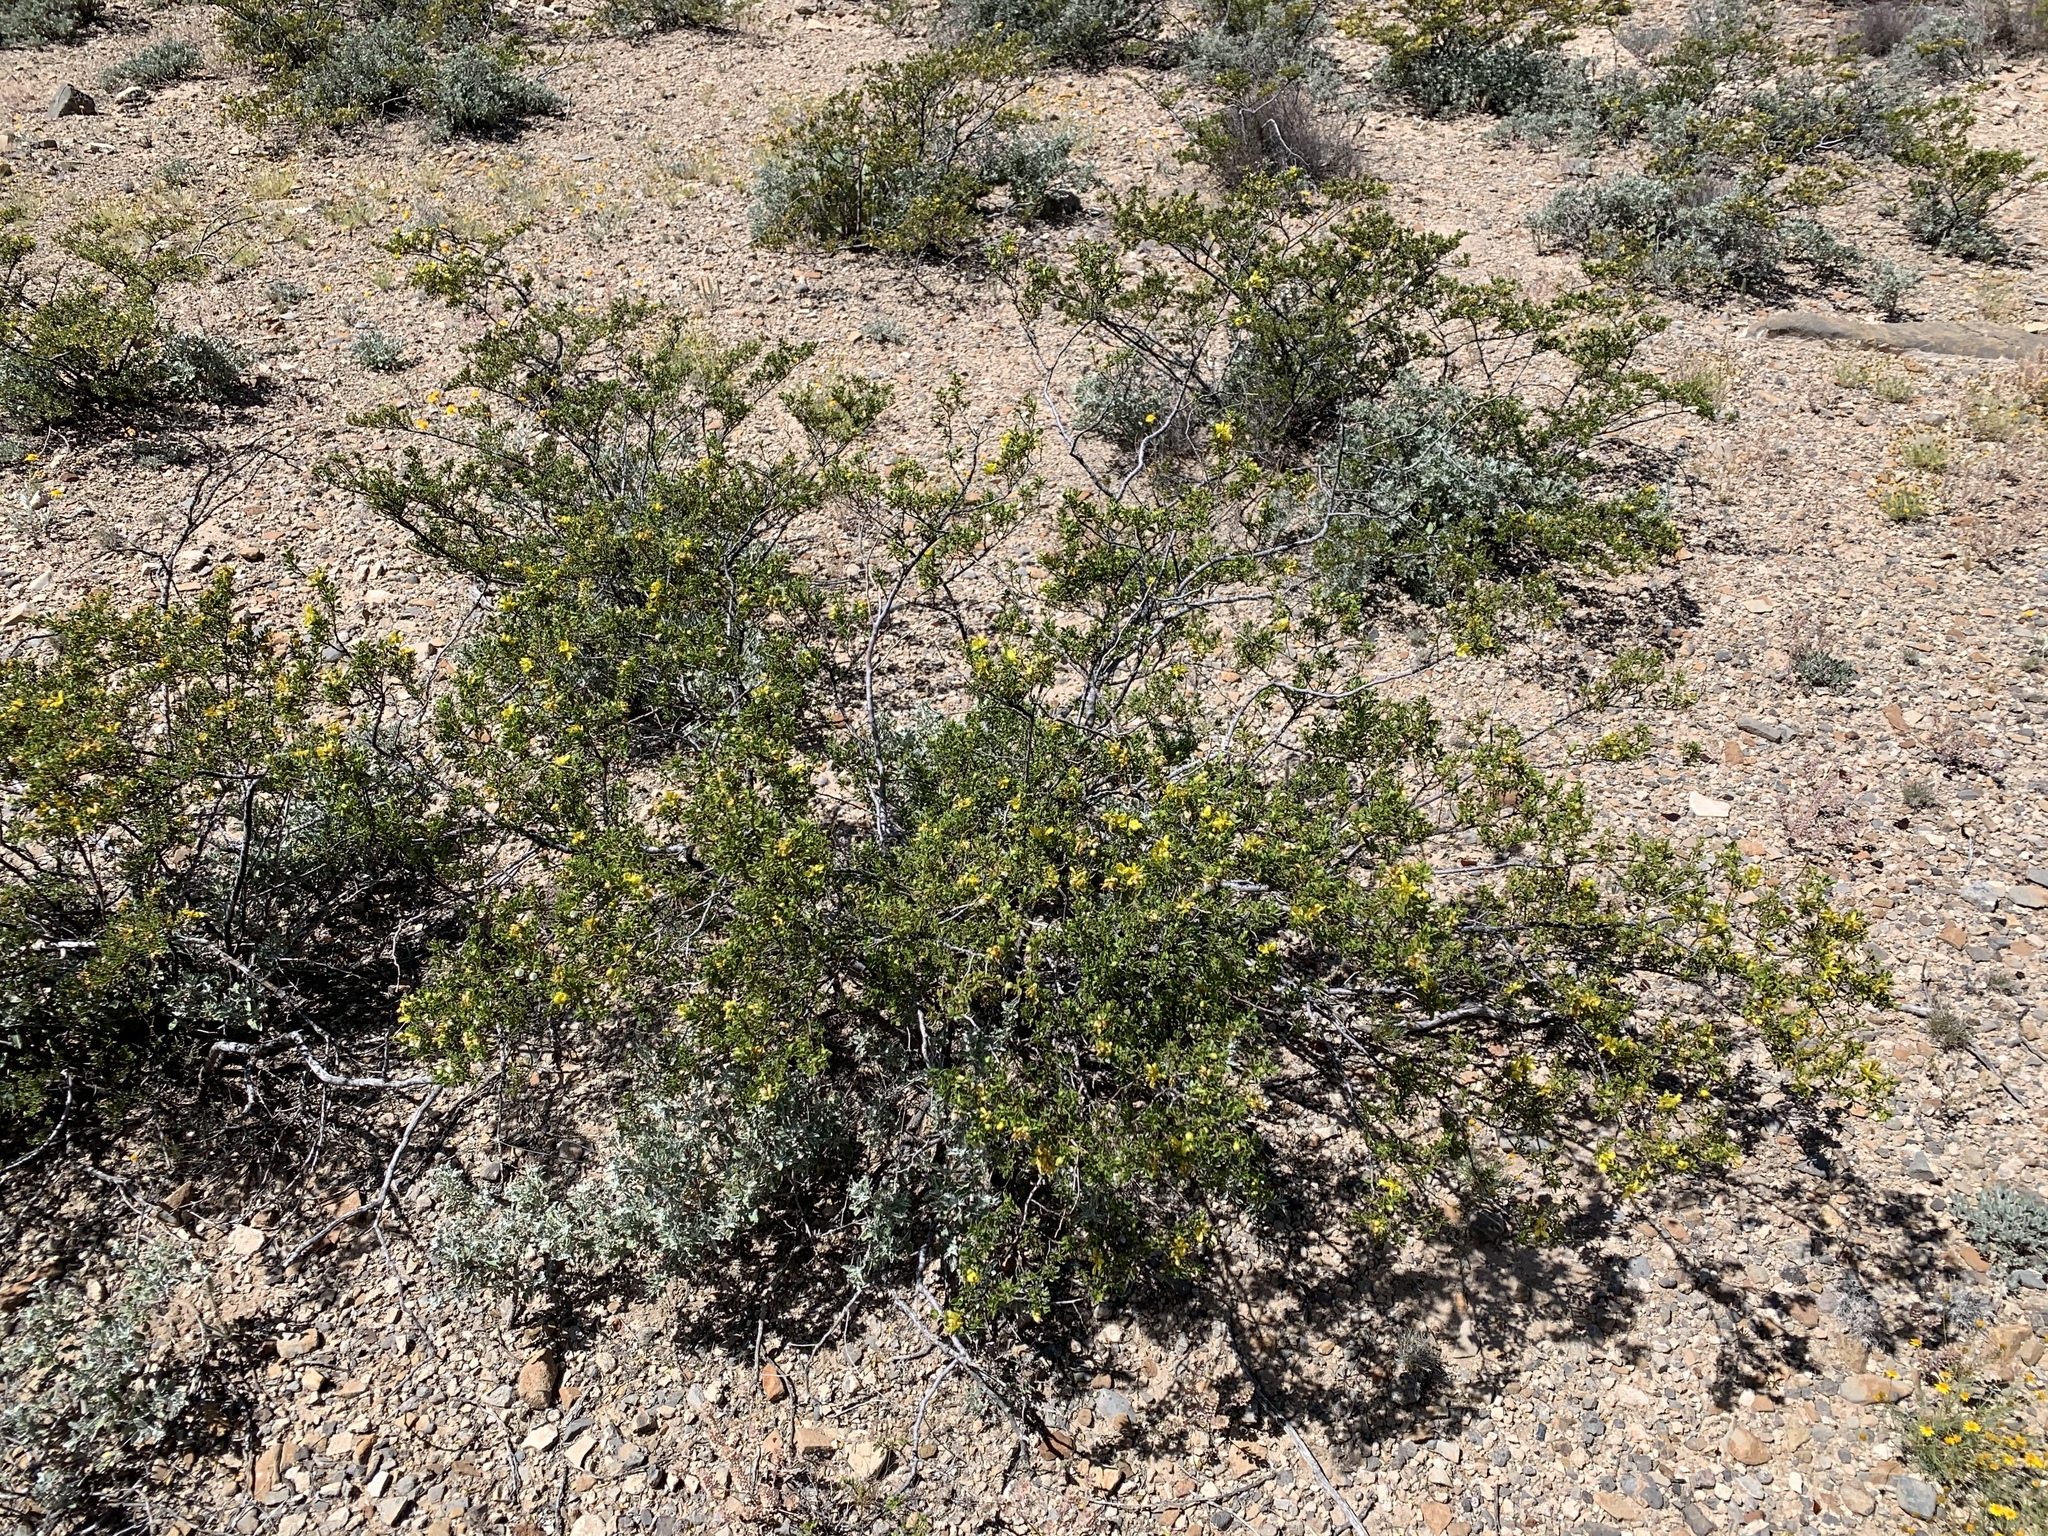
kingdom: Plantae
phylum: Tracheophyta
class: Magnoliopsida
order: Zygophyllales
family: Zygophyllaceae
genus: Larrea
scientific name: Larrea tridentata
